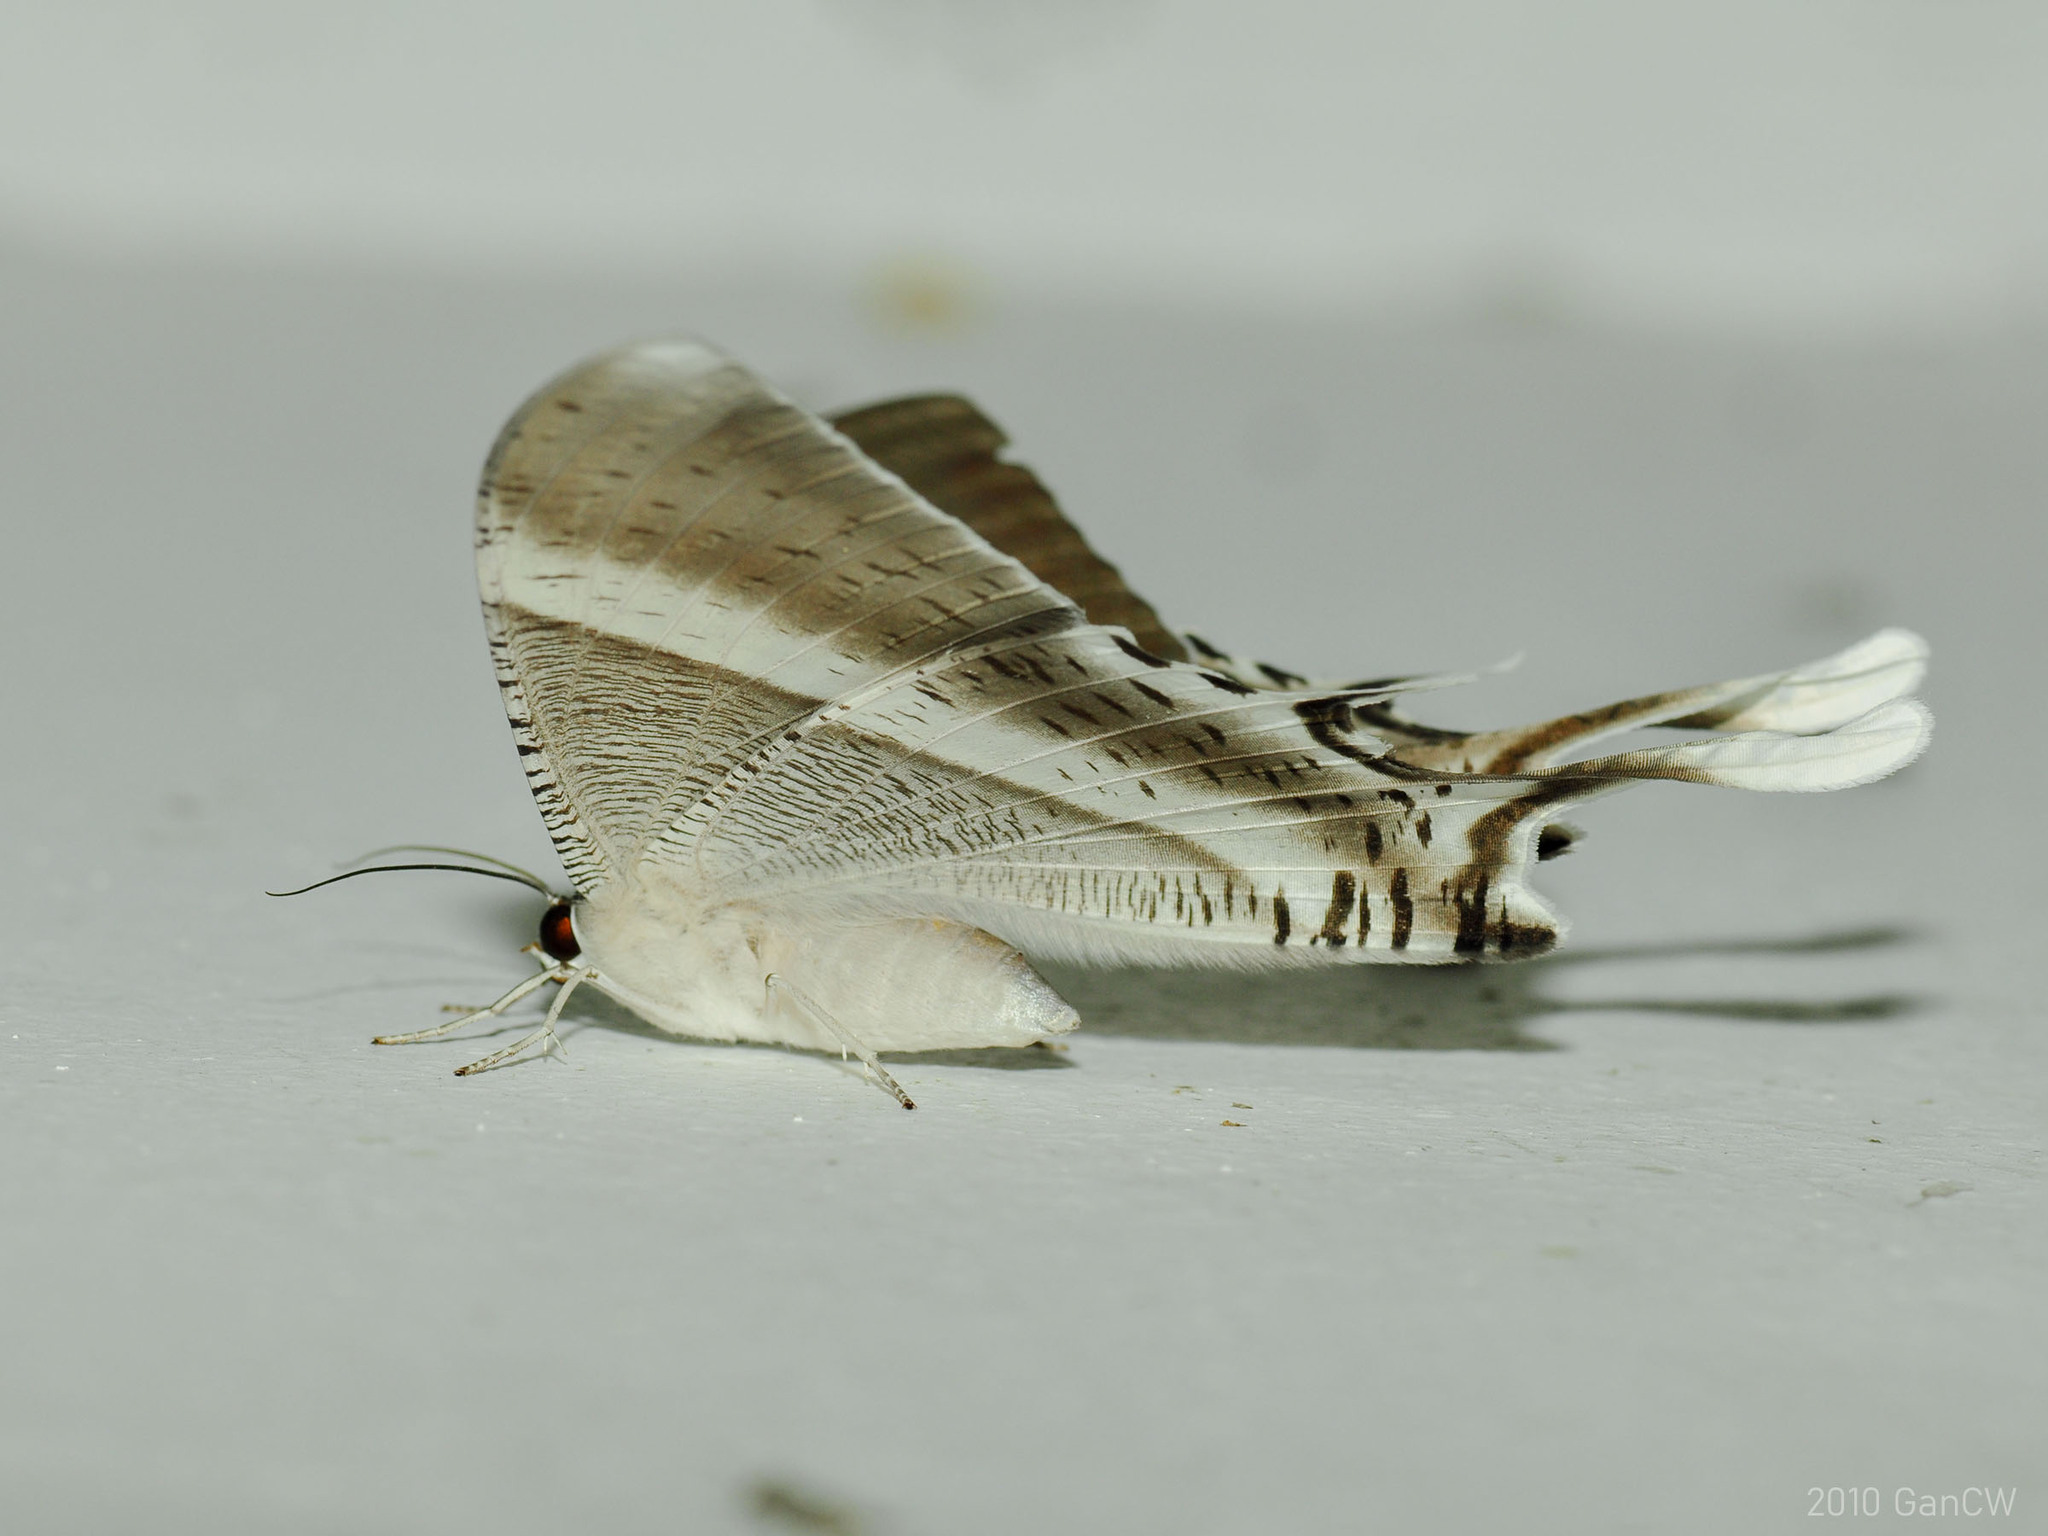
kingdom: Animalia
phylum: Arthropoda
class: Insecta
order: Lepidoptera
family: Uraniidae
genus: Lyssa
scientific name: Lyssa zampa
